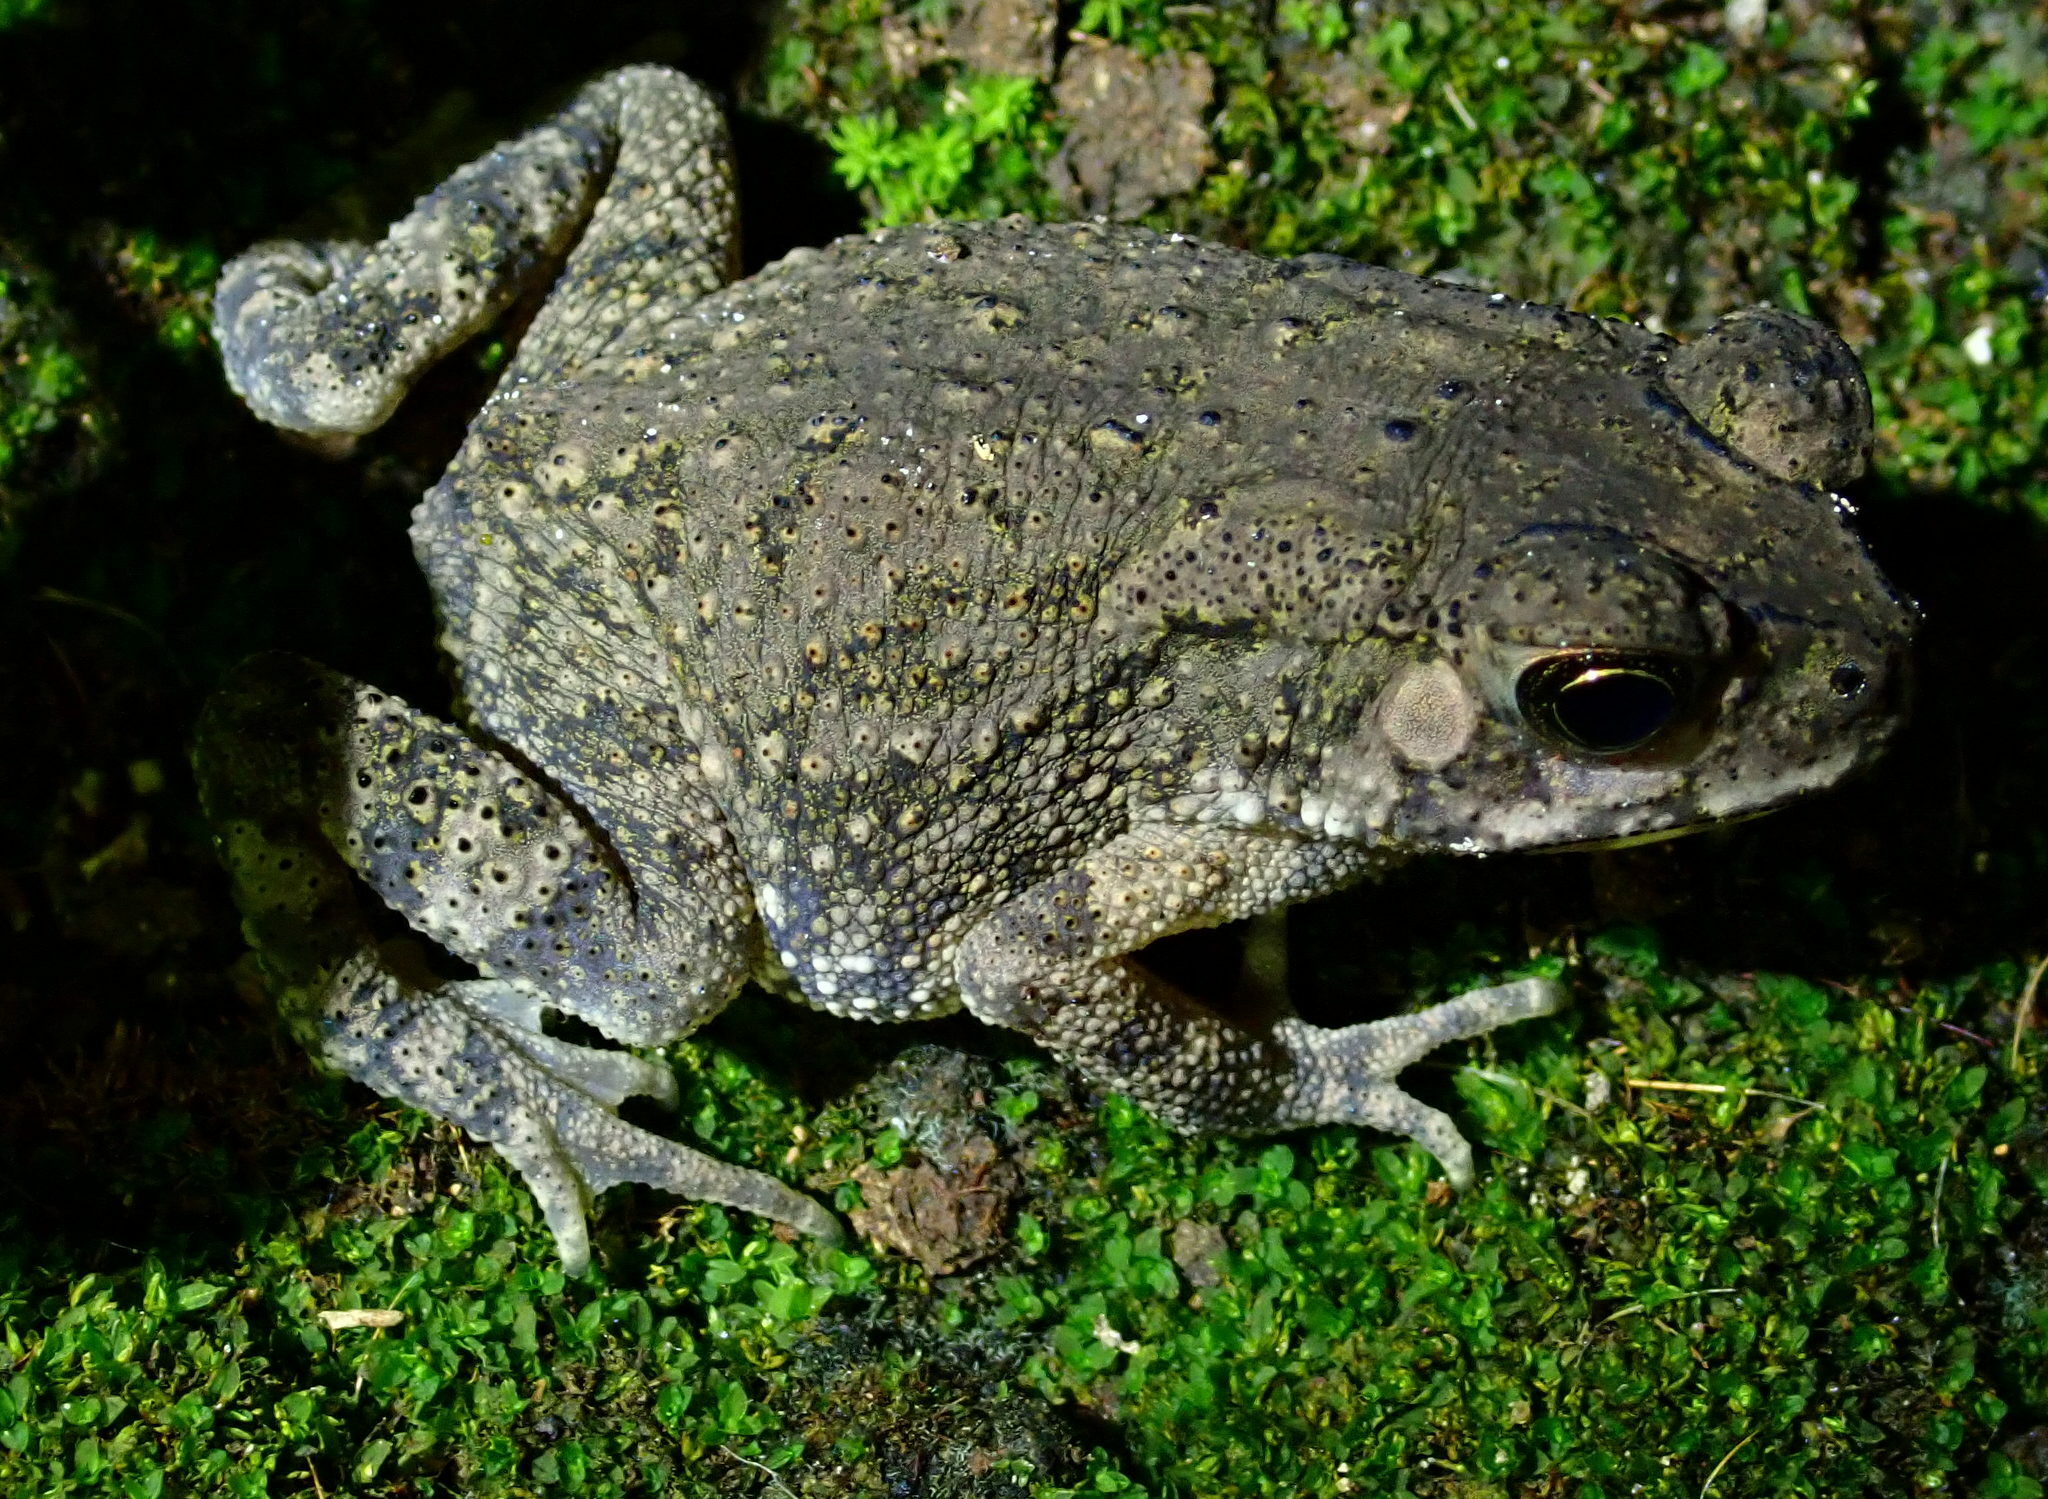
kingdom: Animalia
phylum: Chordata
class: Amphibia
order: Anura
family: Bufonidae
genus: Duttaphrynus
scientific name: Duttaphrynus melanostictus
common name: Common sunda toad
